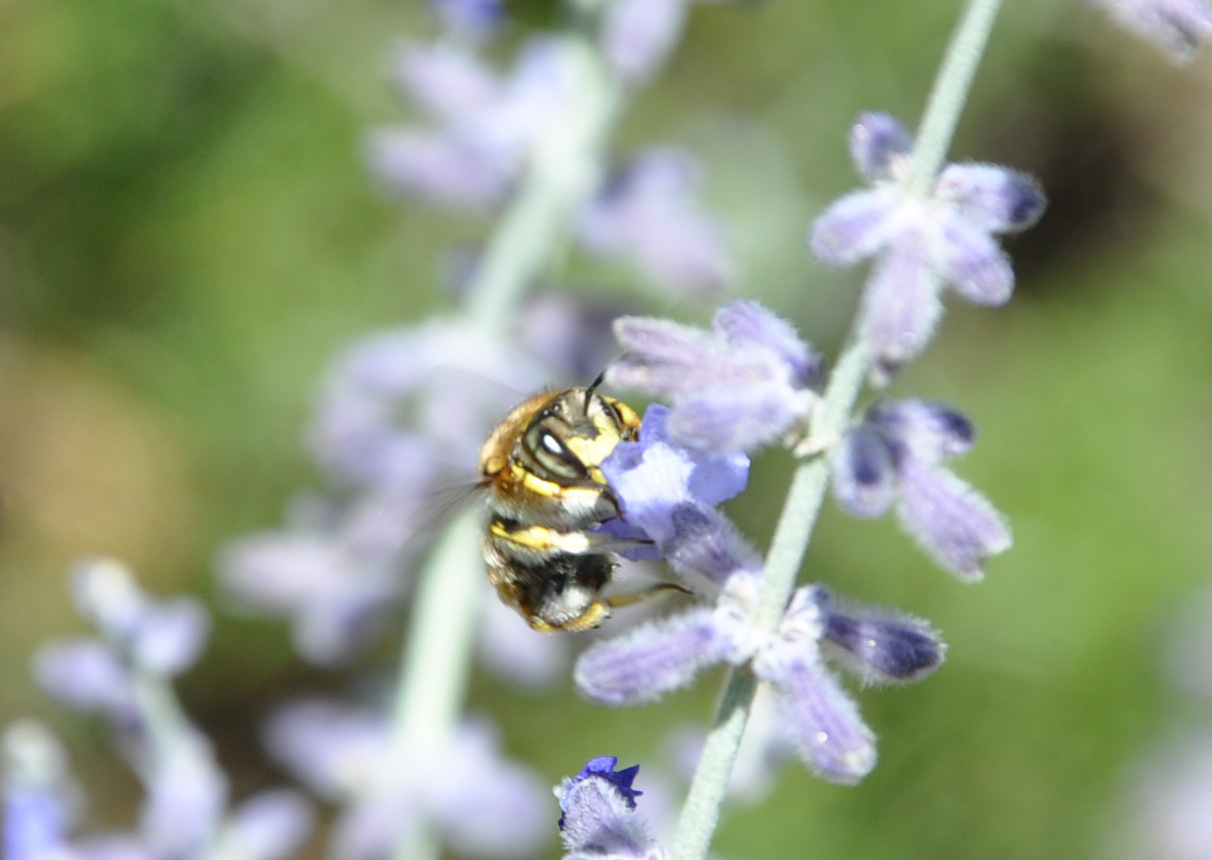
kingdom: Animalia
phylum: Arthropoda
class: Insecta
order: Hymenoptera
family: Megachilidae
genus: Anthidium
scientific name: Anthidium manicatum
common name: Wool carder bee
